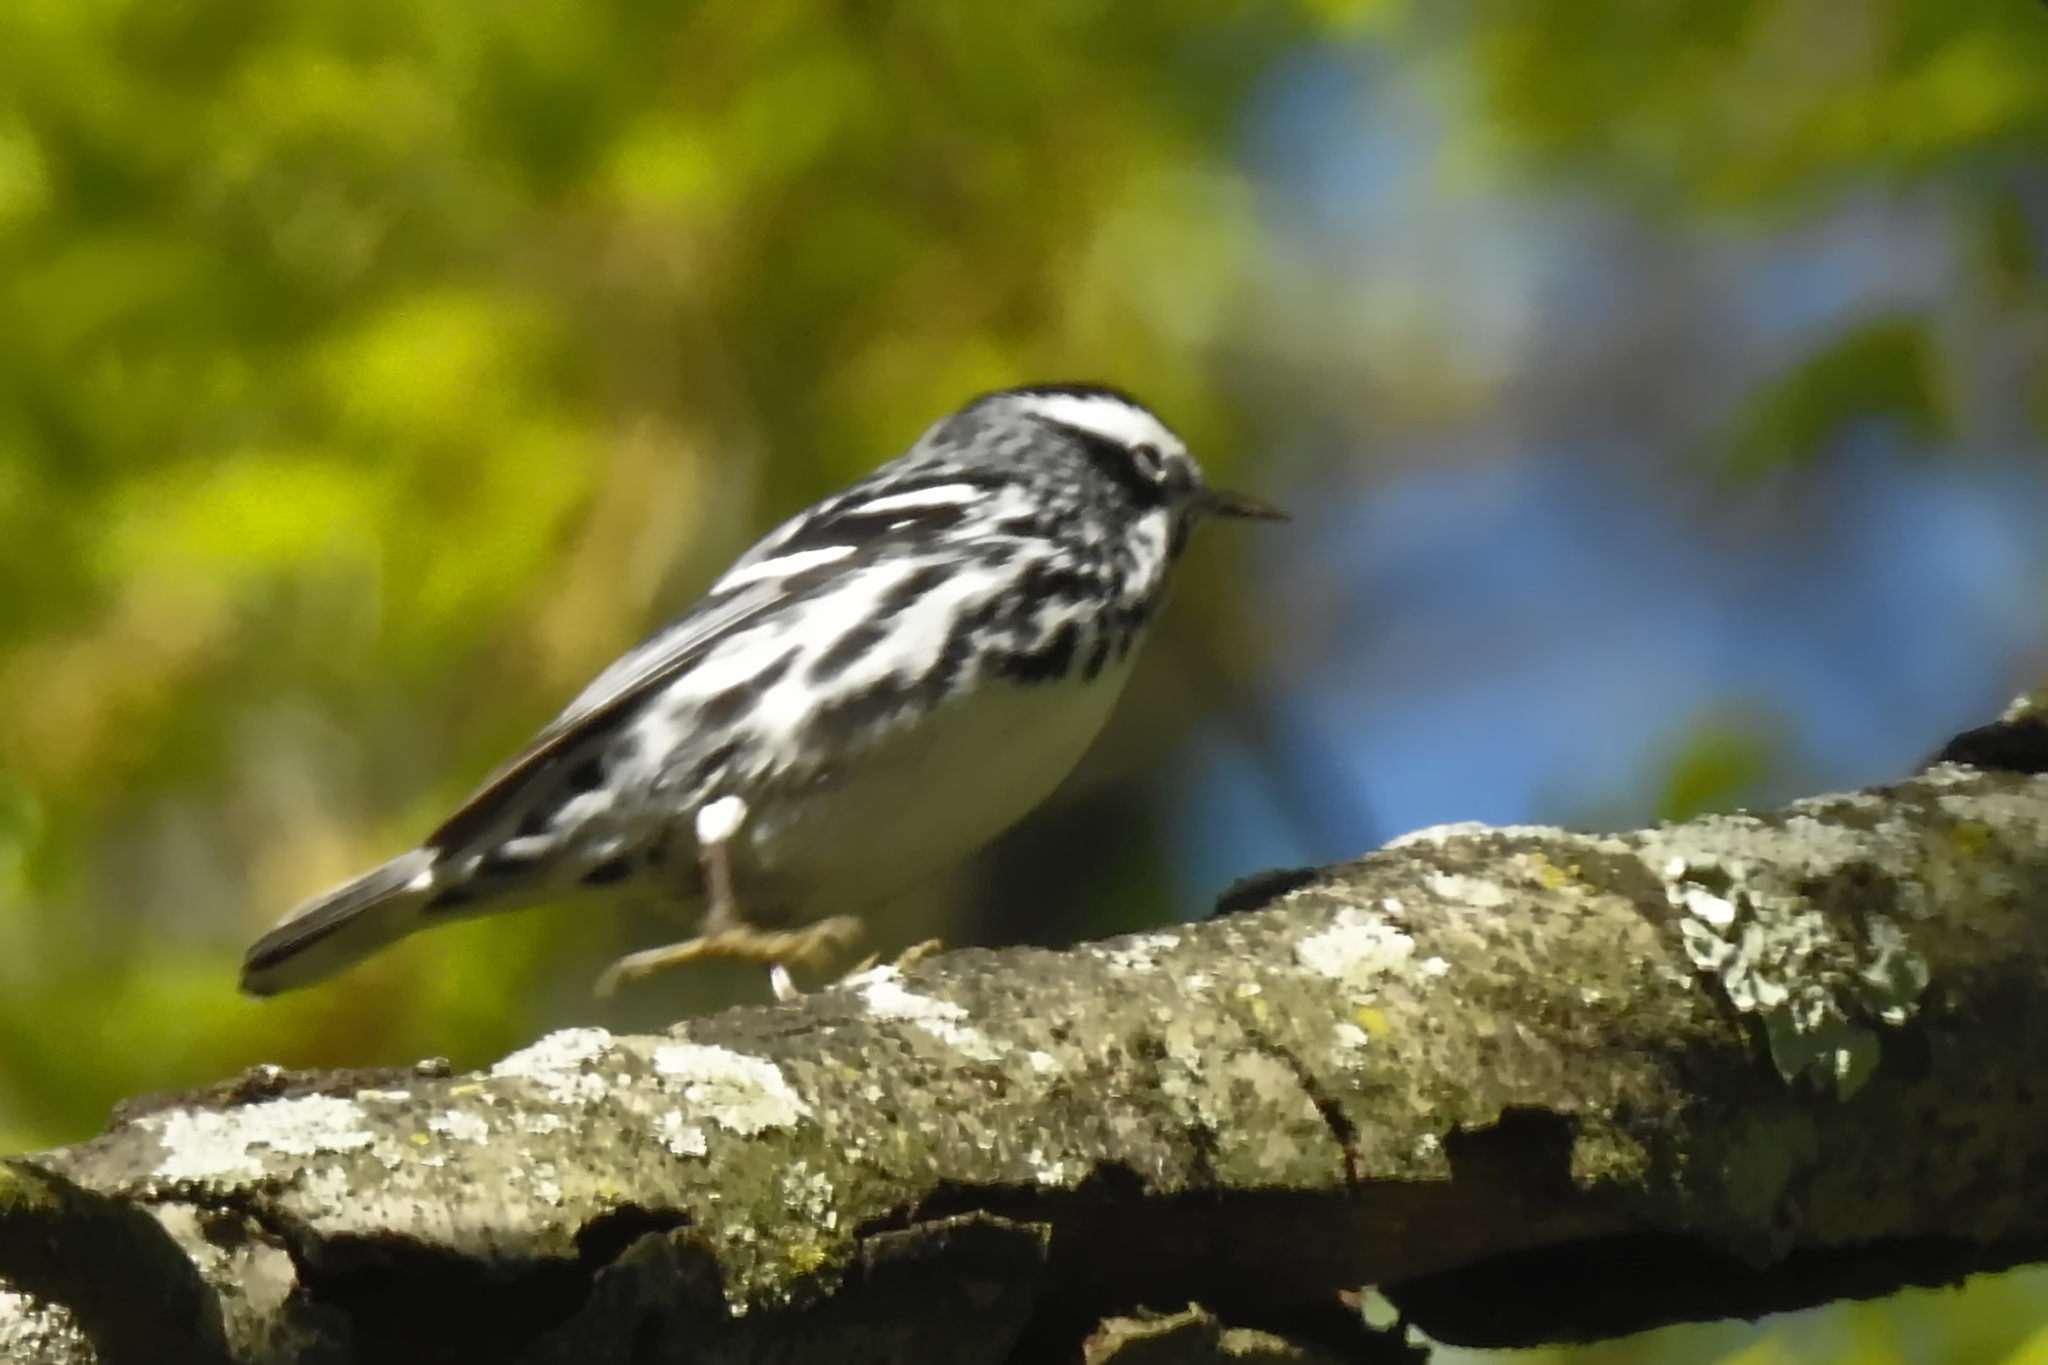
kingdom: Animalia
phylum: Chordata
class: Aves
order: Passeriformes
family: Parulidae
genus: Mniotilta
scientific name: Mniotilta varia
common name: Black-and-white warbler
